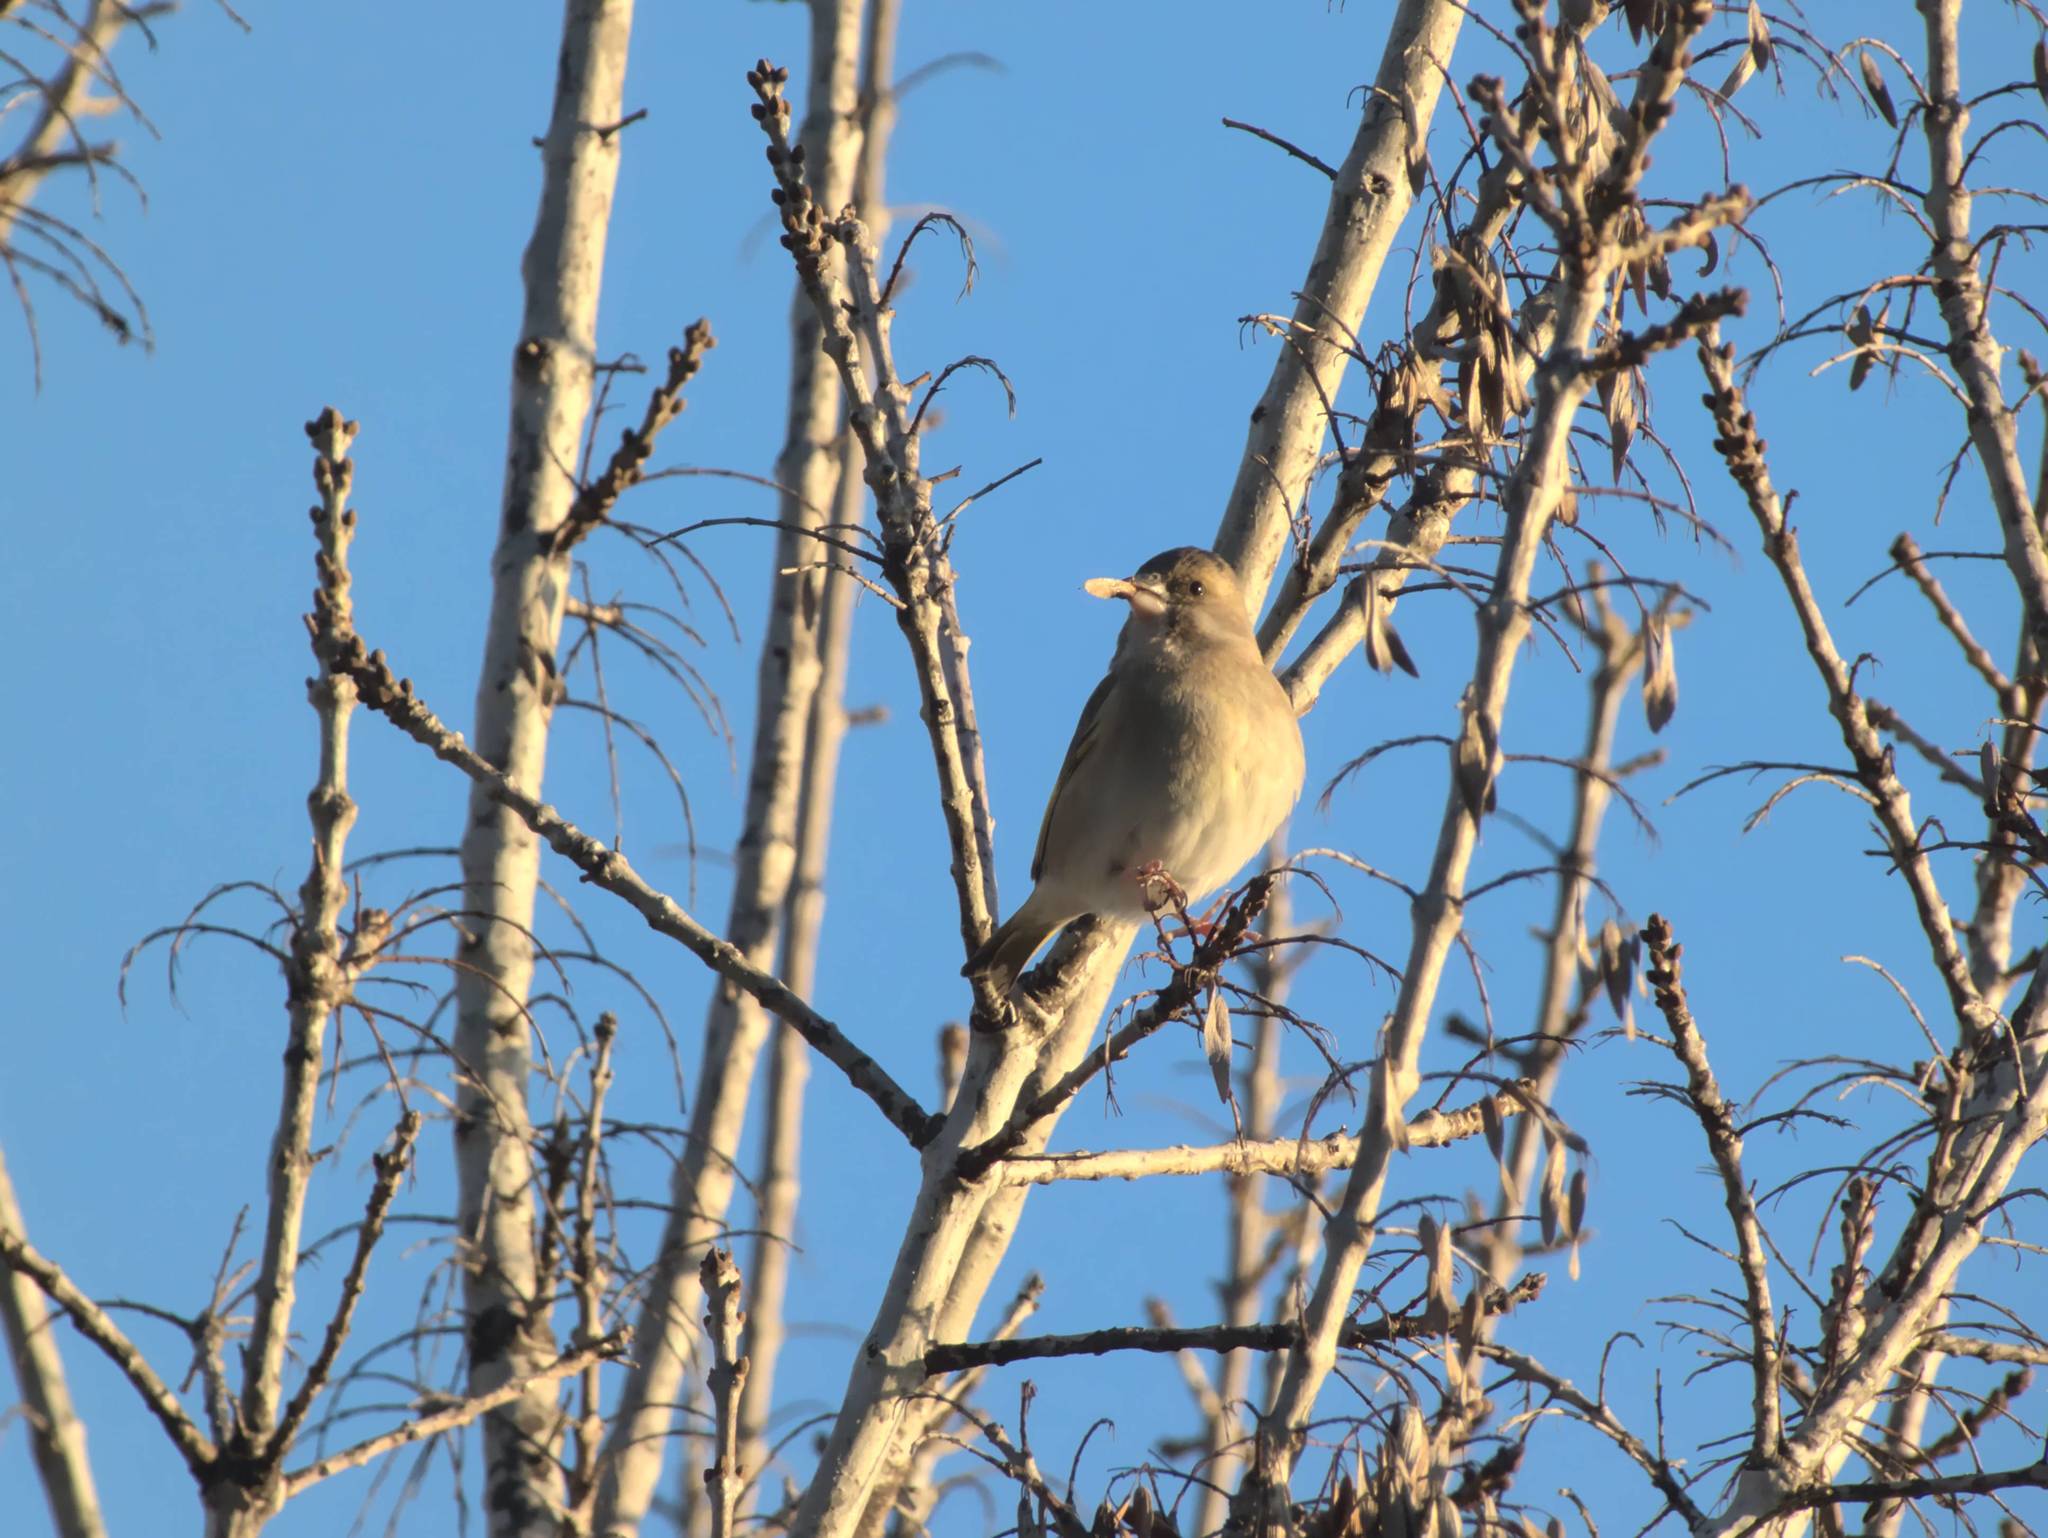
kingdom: Animalia
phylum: Chordata
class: Aves
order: Passeriformes
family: Fringillidae
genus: Fringilla
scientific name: Fringilla coelebs
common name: Common chaffinch
